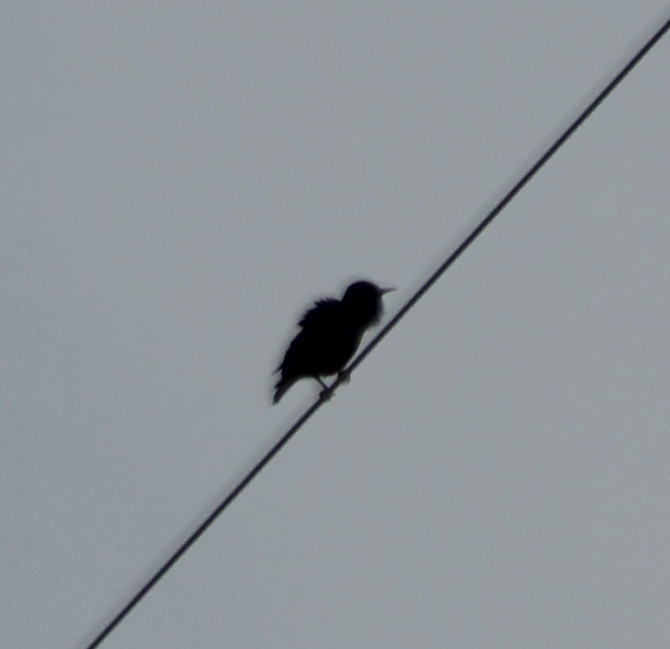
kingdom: Animalia
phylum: Chordata
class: Aves
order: Passeriformes
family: Sturnidae
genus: Sturnus
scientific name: Sturnus vulgaris
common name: Common starling
